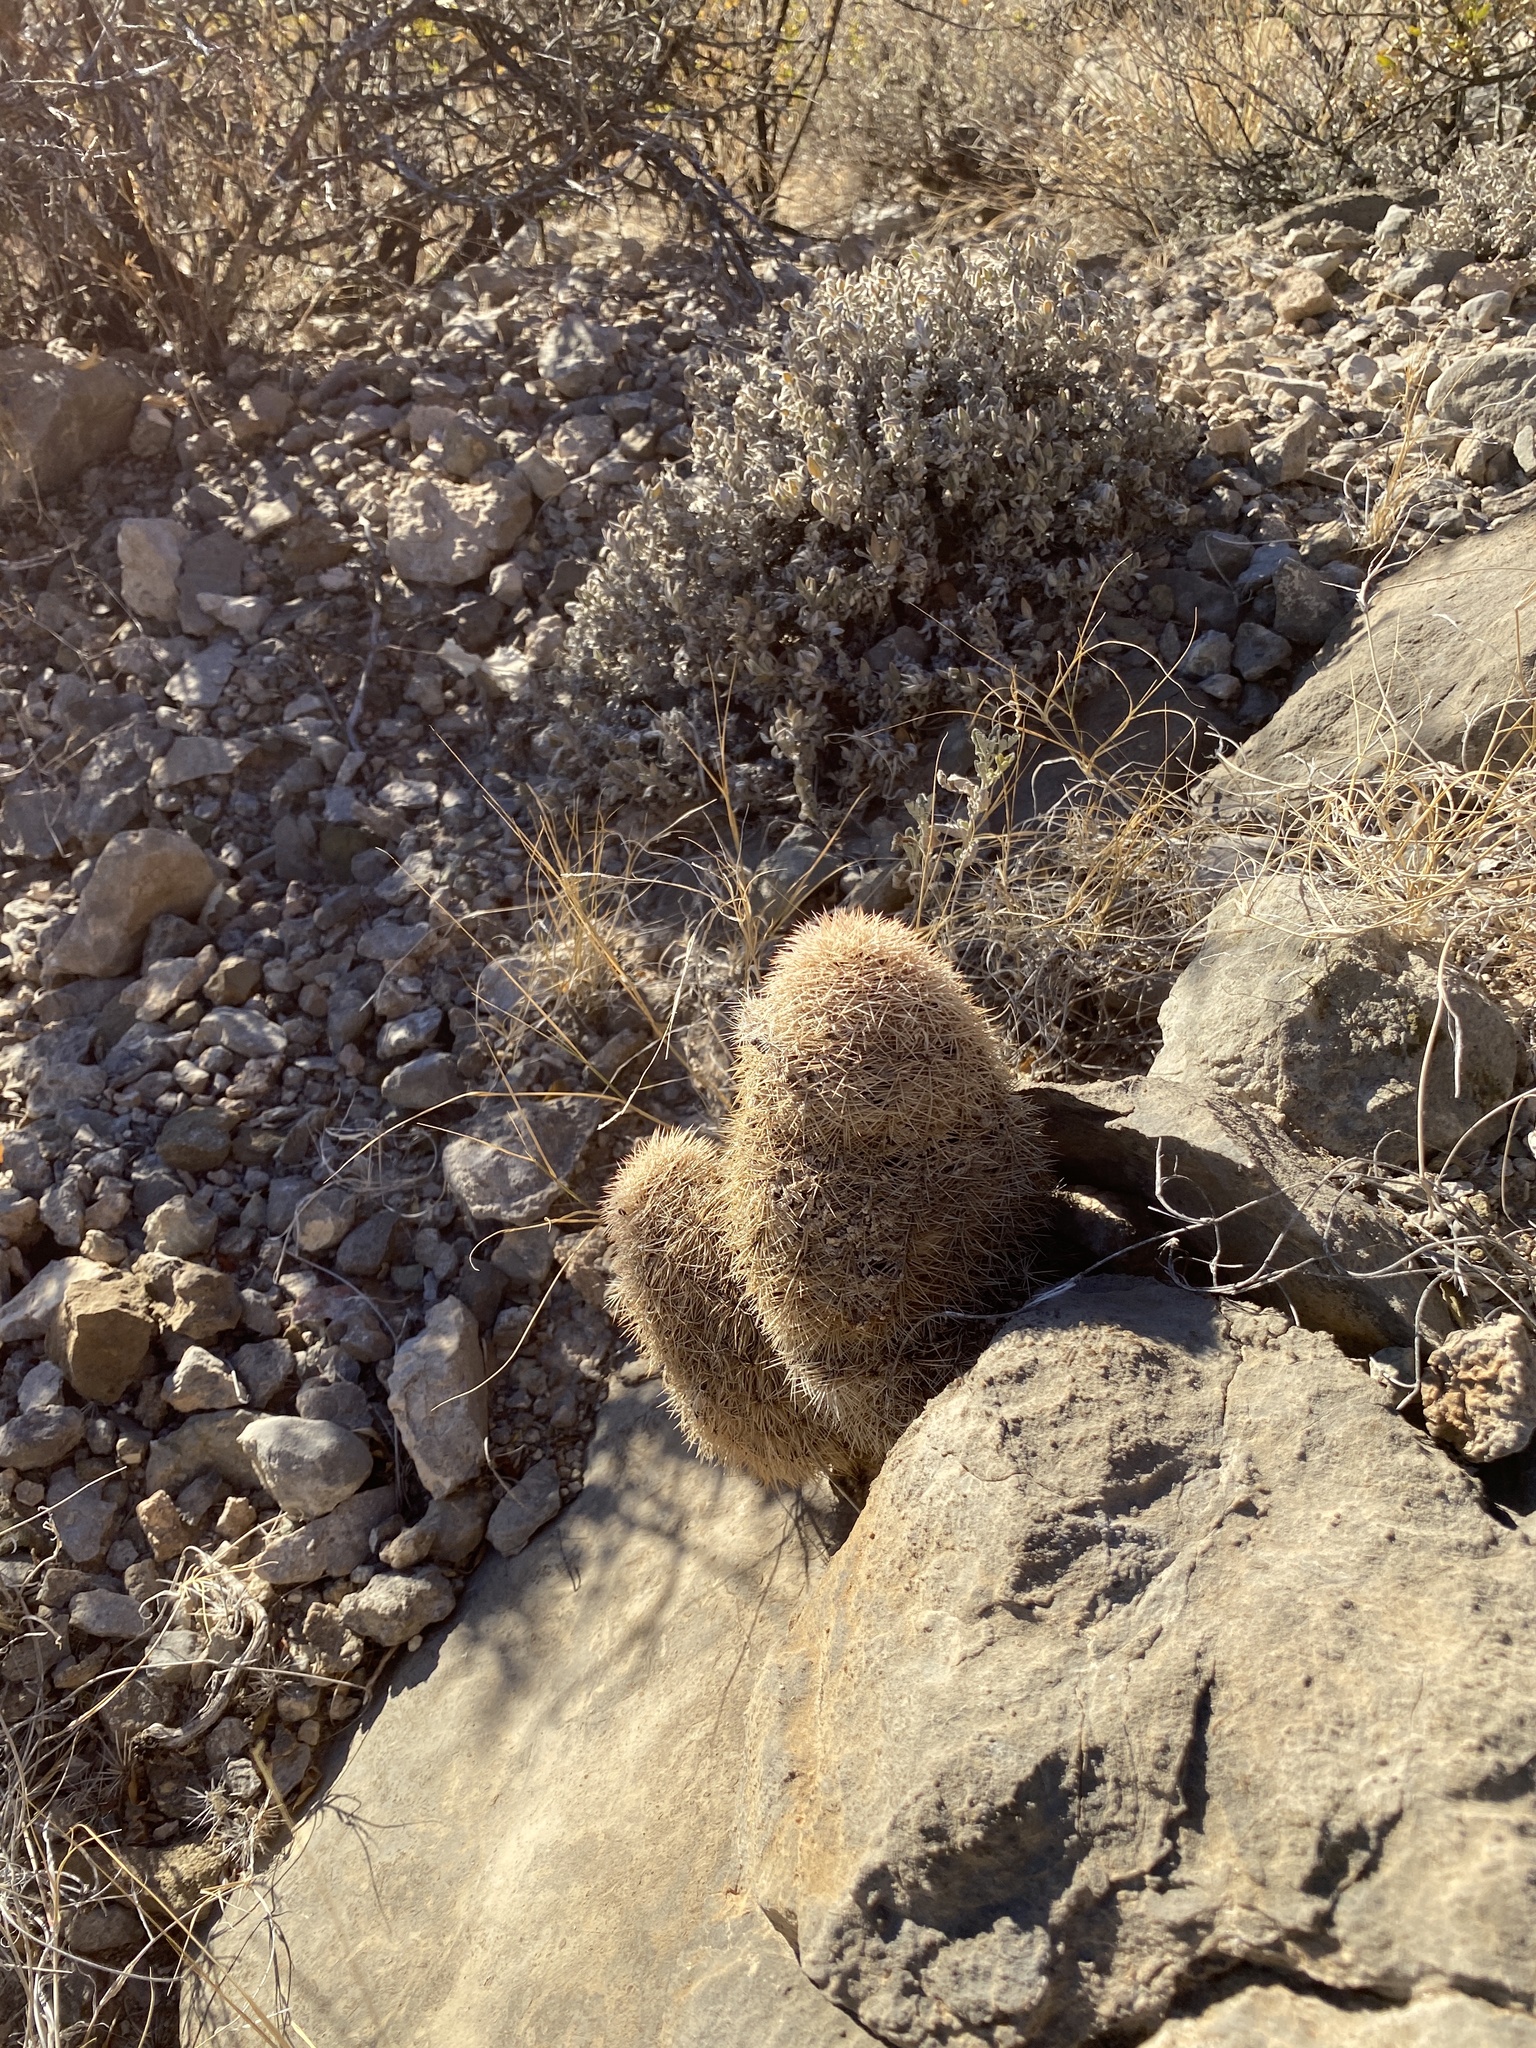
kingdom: Plantae
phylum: Tracheophyta
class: Magnoliopsida
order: Caryophyllales
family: Cactaceae
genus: Echinocereus
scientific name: Echinocereus dasyacanthus
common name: Spiny hedgehog cactus
